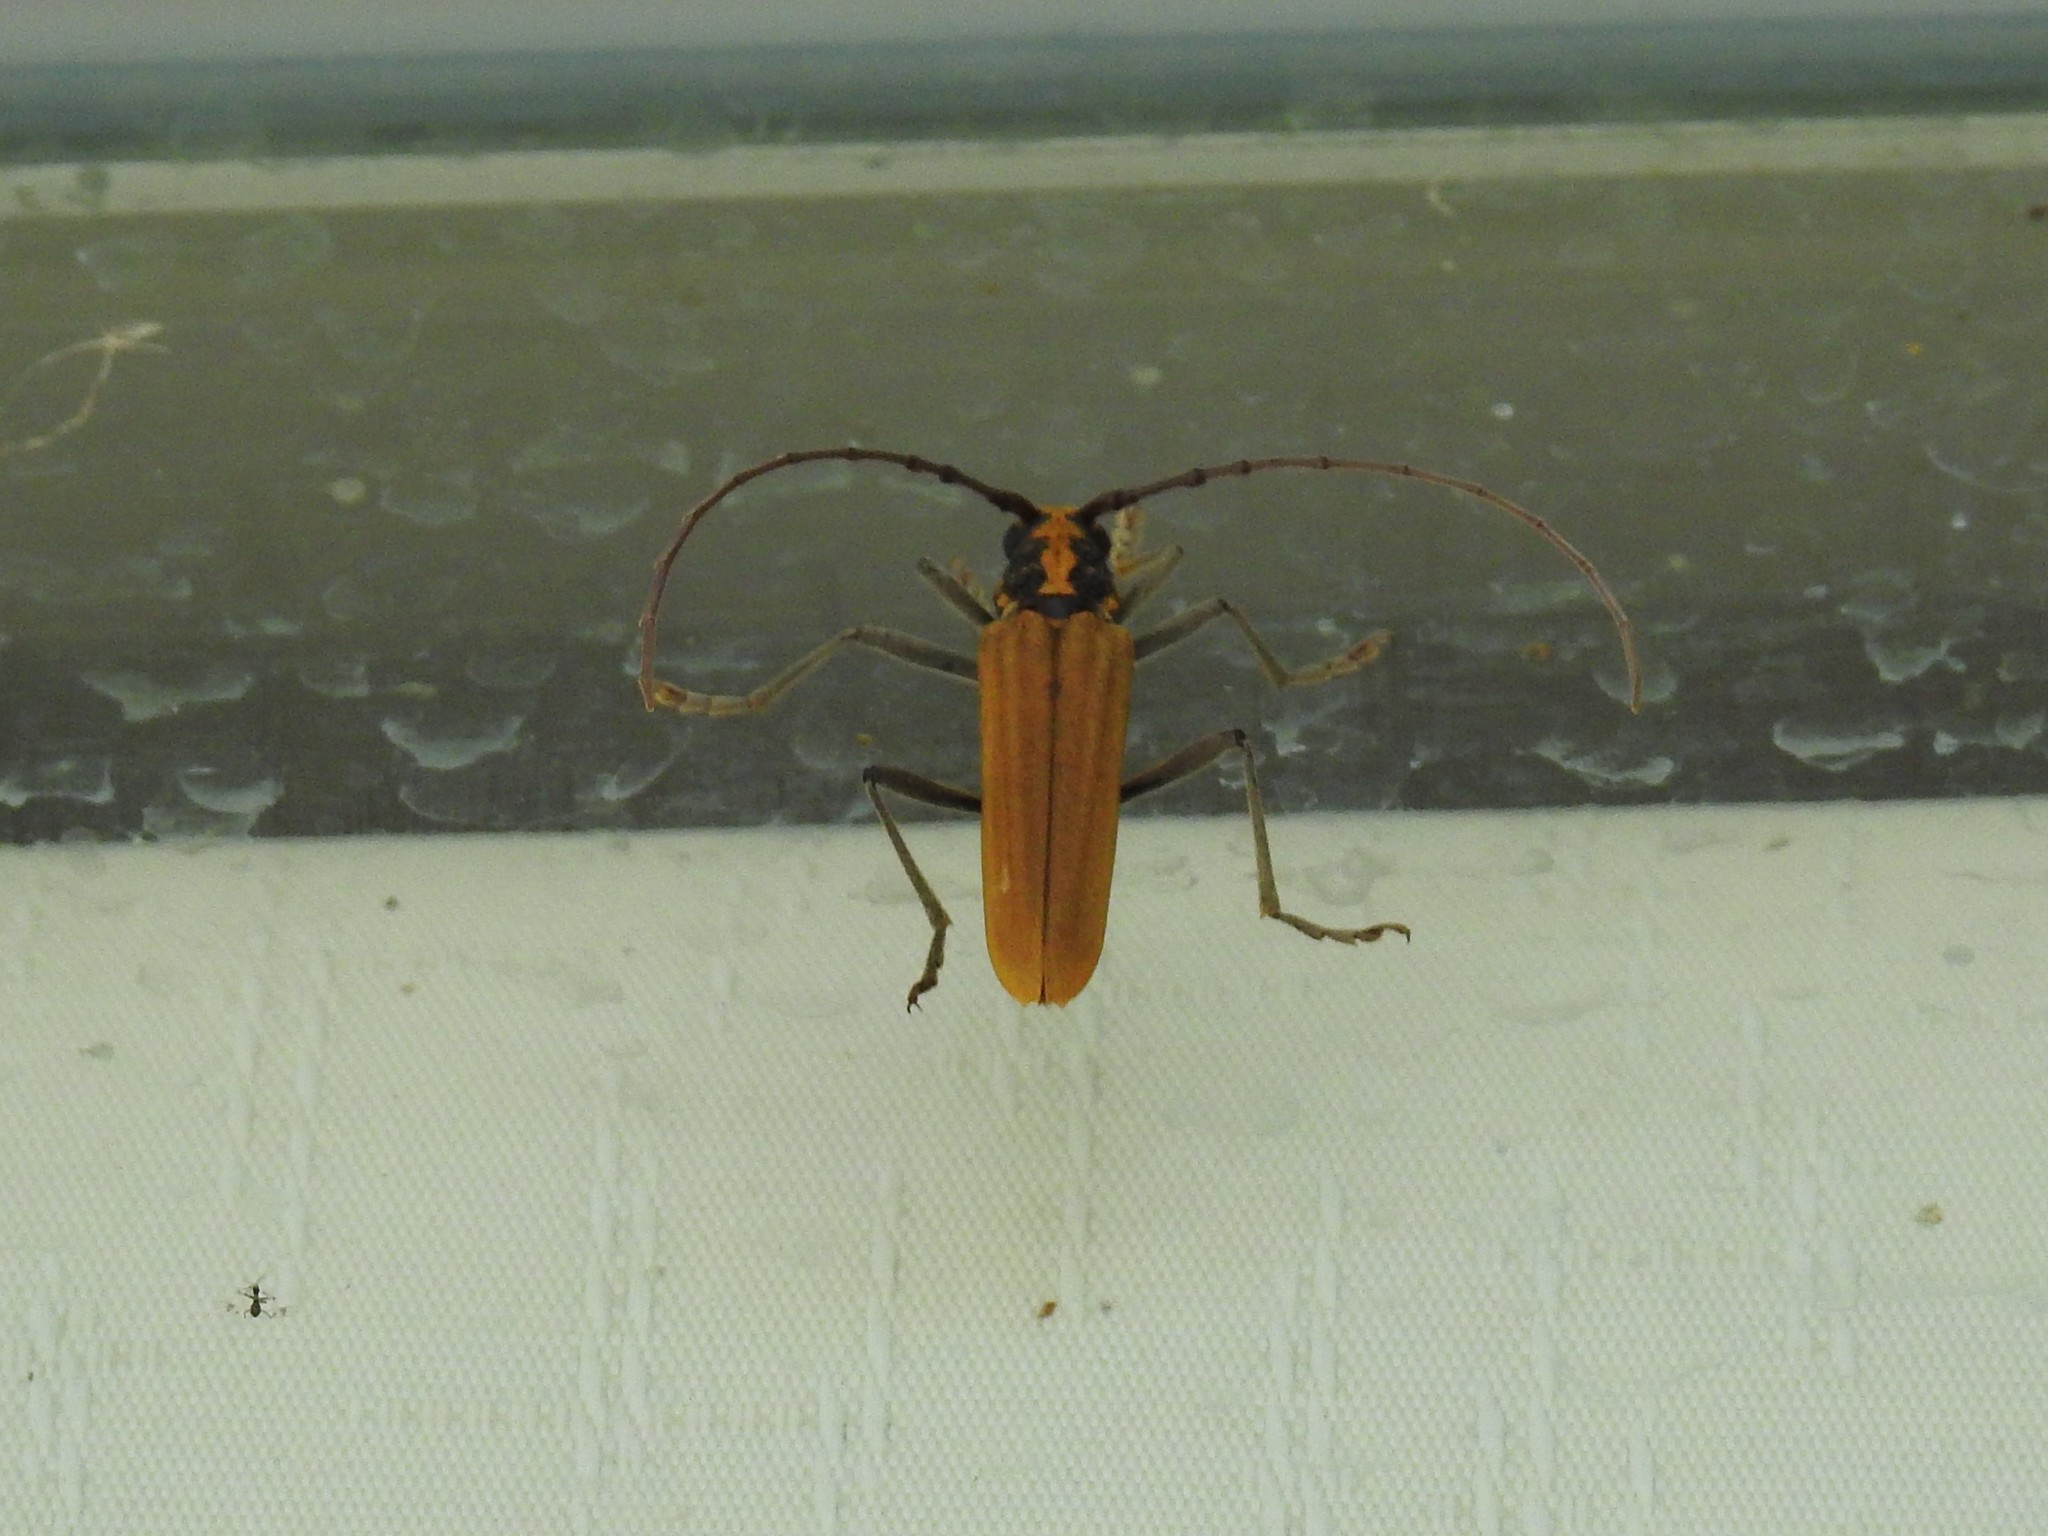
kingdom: Animalia
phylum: Arthropoda
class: Insecta
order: Coleoptera
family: Cerambycidae
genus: Gibbocerambyx
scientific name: Gibbocerambyx maculicollis
